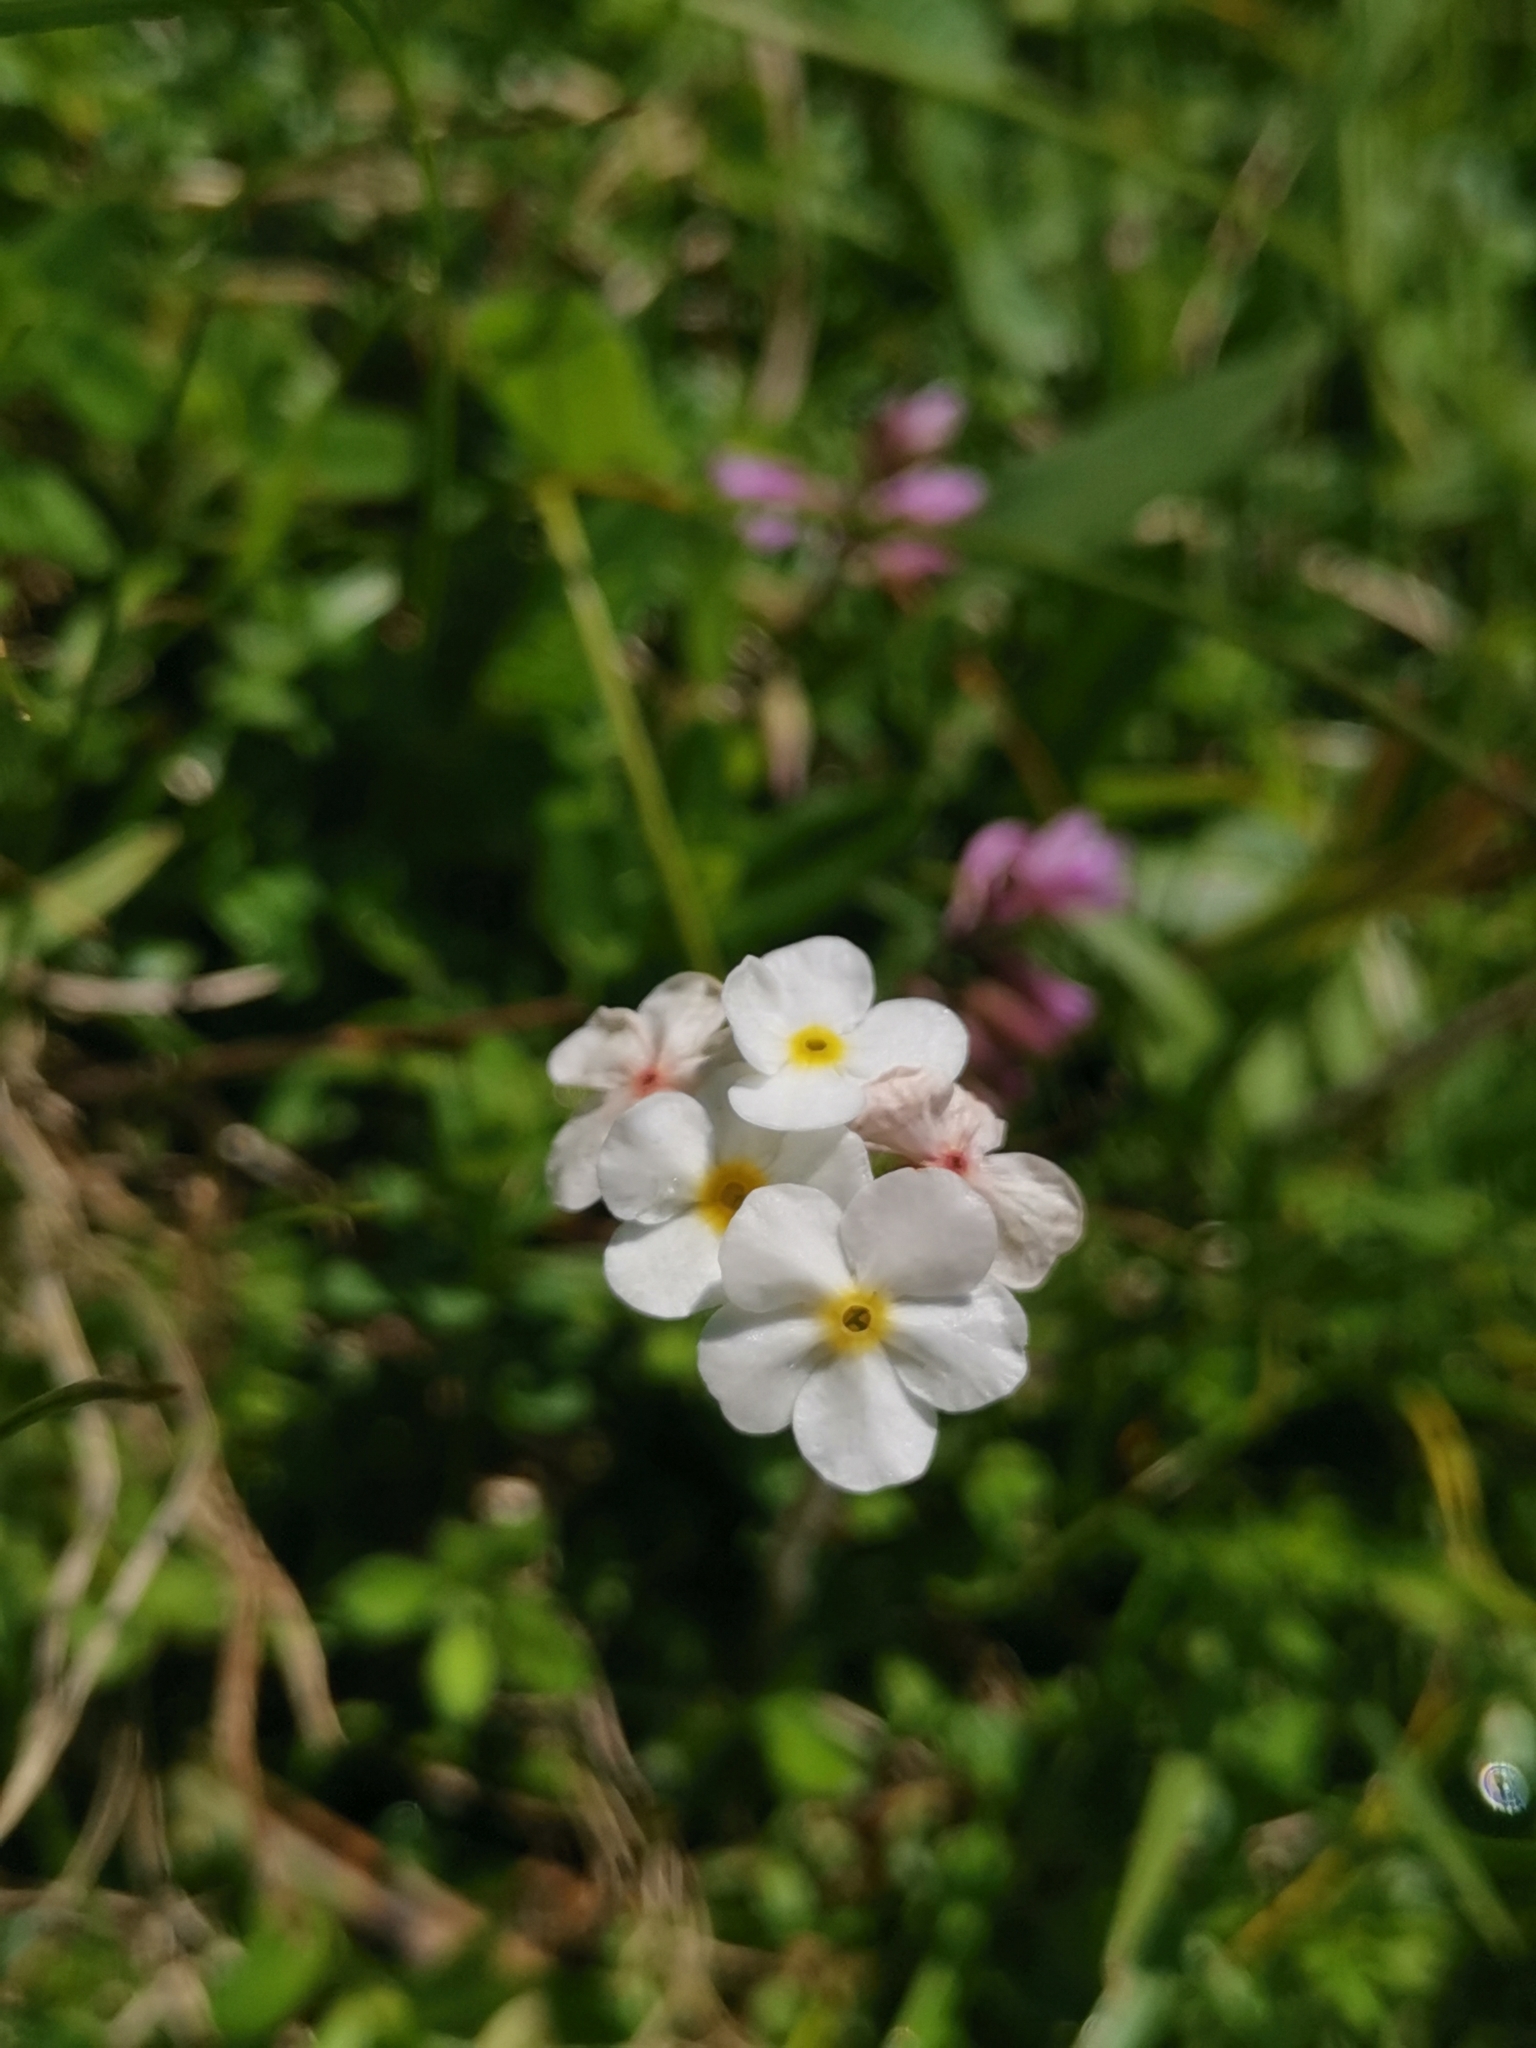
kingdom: Plantae
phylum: Tracheophyta
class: Magnoliopsida
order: Ericales
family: Primulaceae
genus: Androsace
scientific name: Androsace villosa
